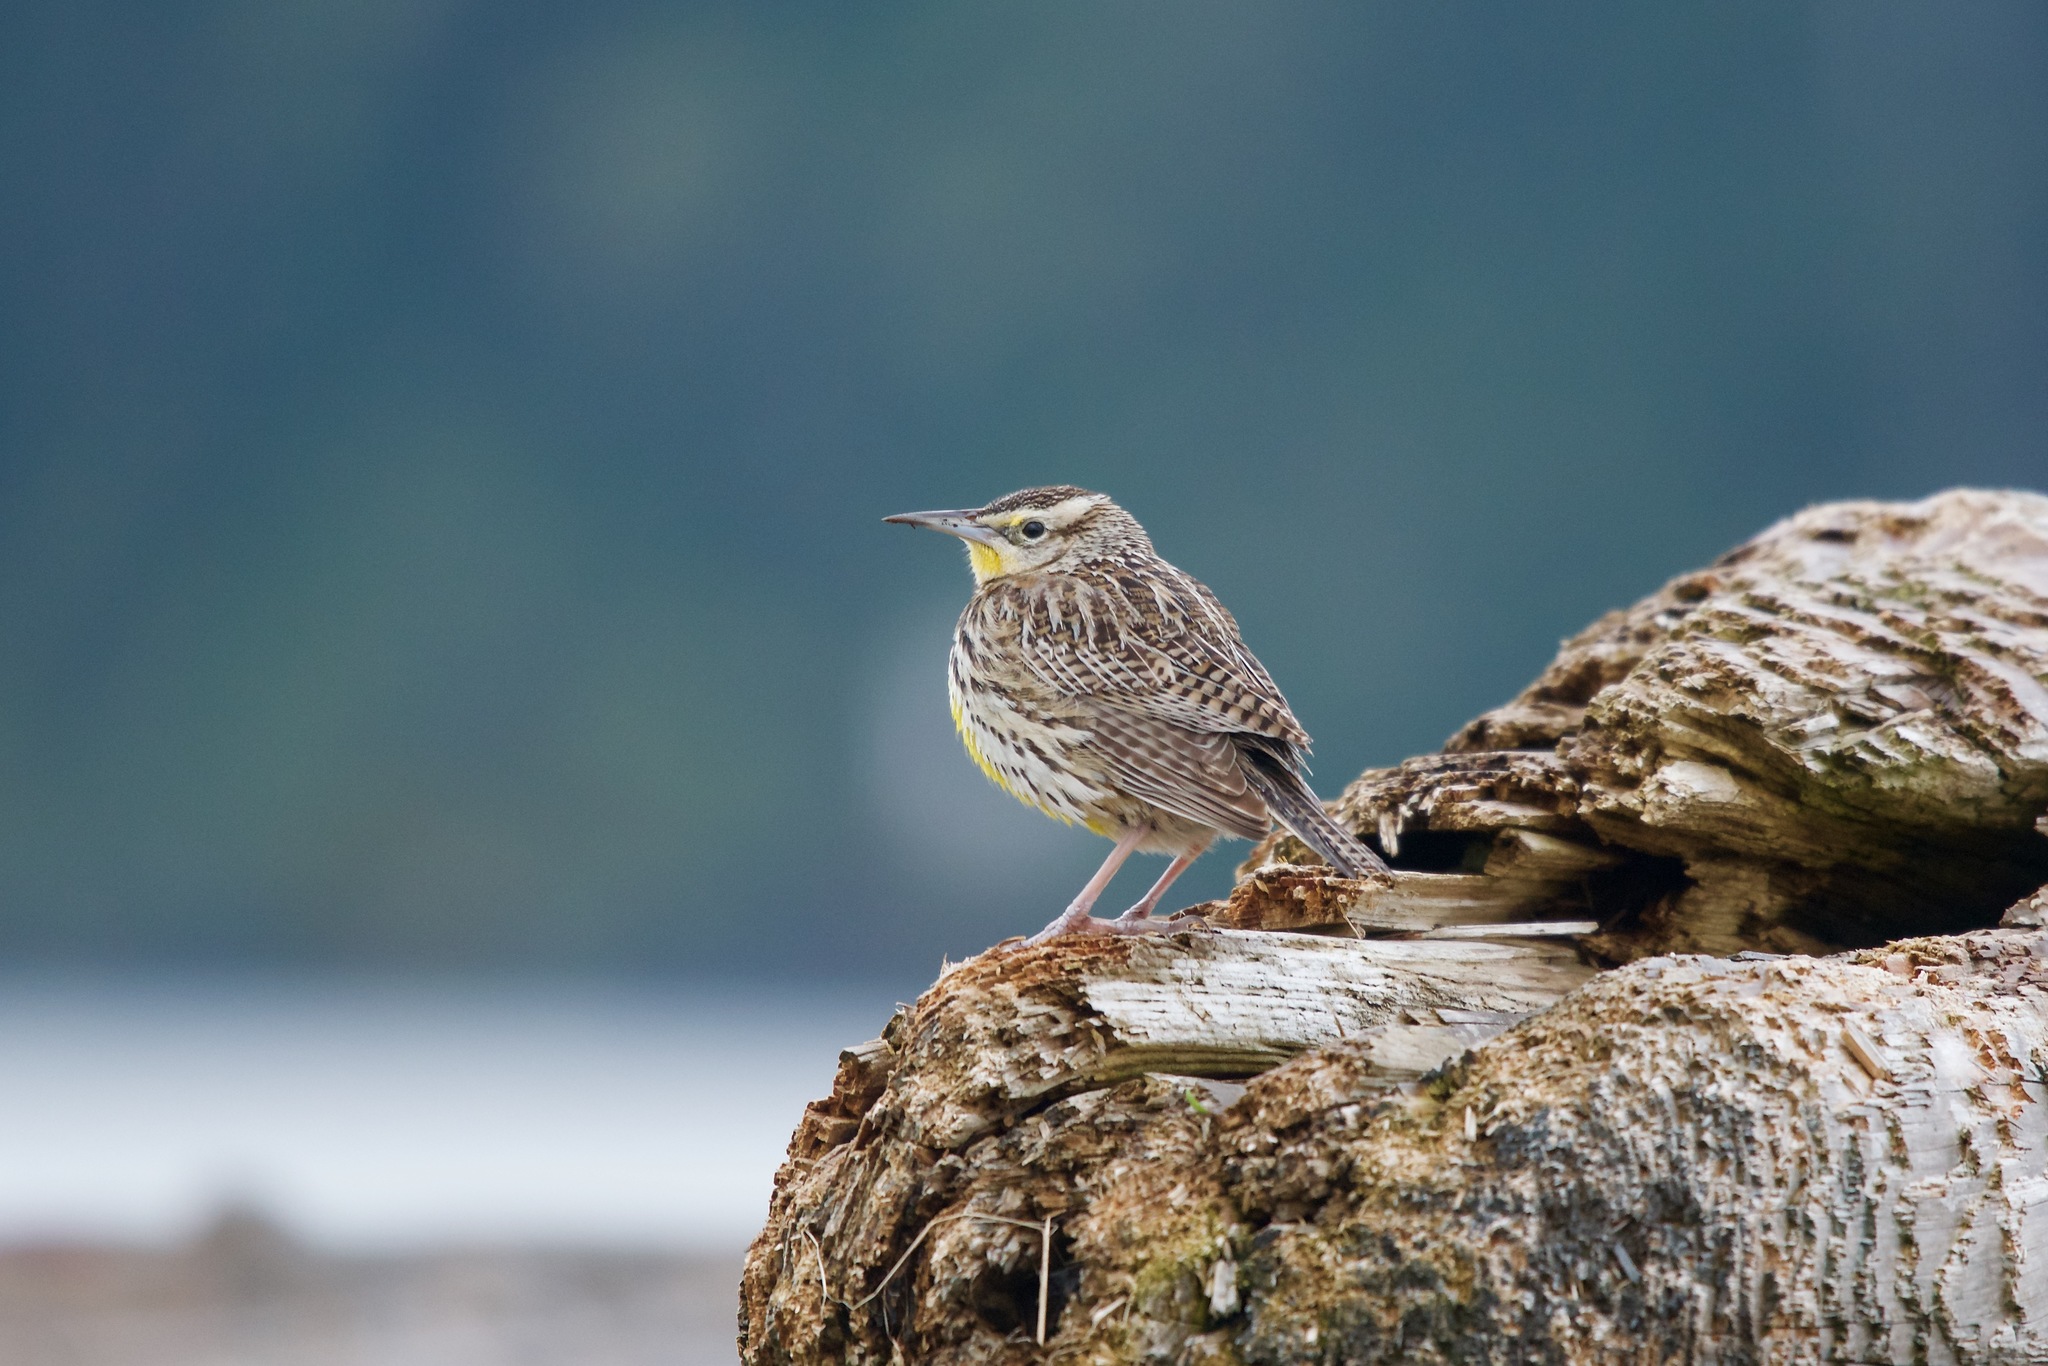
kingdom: Animalia
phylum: Chordata
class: Aves
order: Passeriformes
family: Icteridae
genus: Sturnella
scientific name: Sturnella neglecta
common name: Western meadowlark
